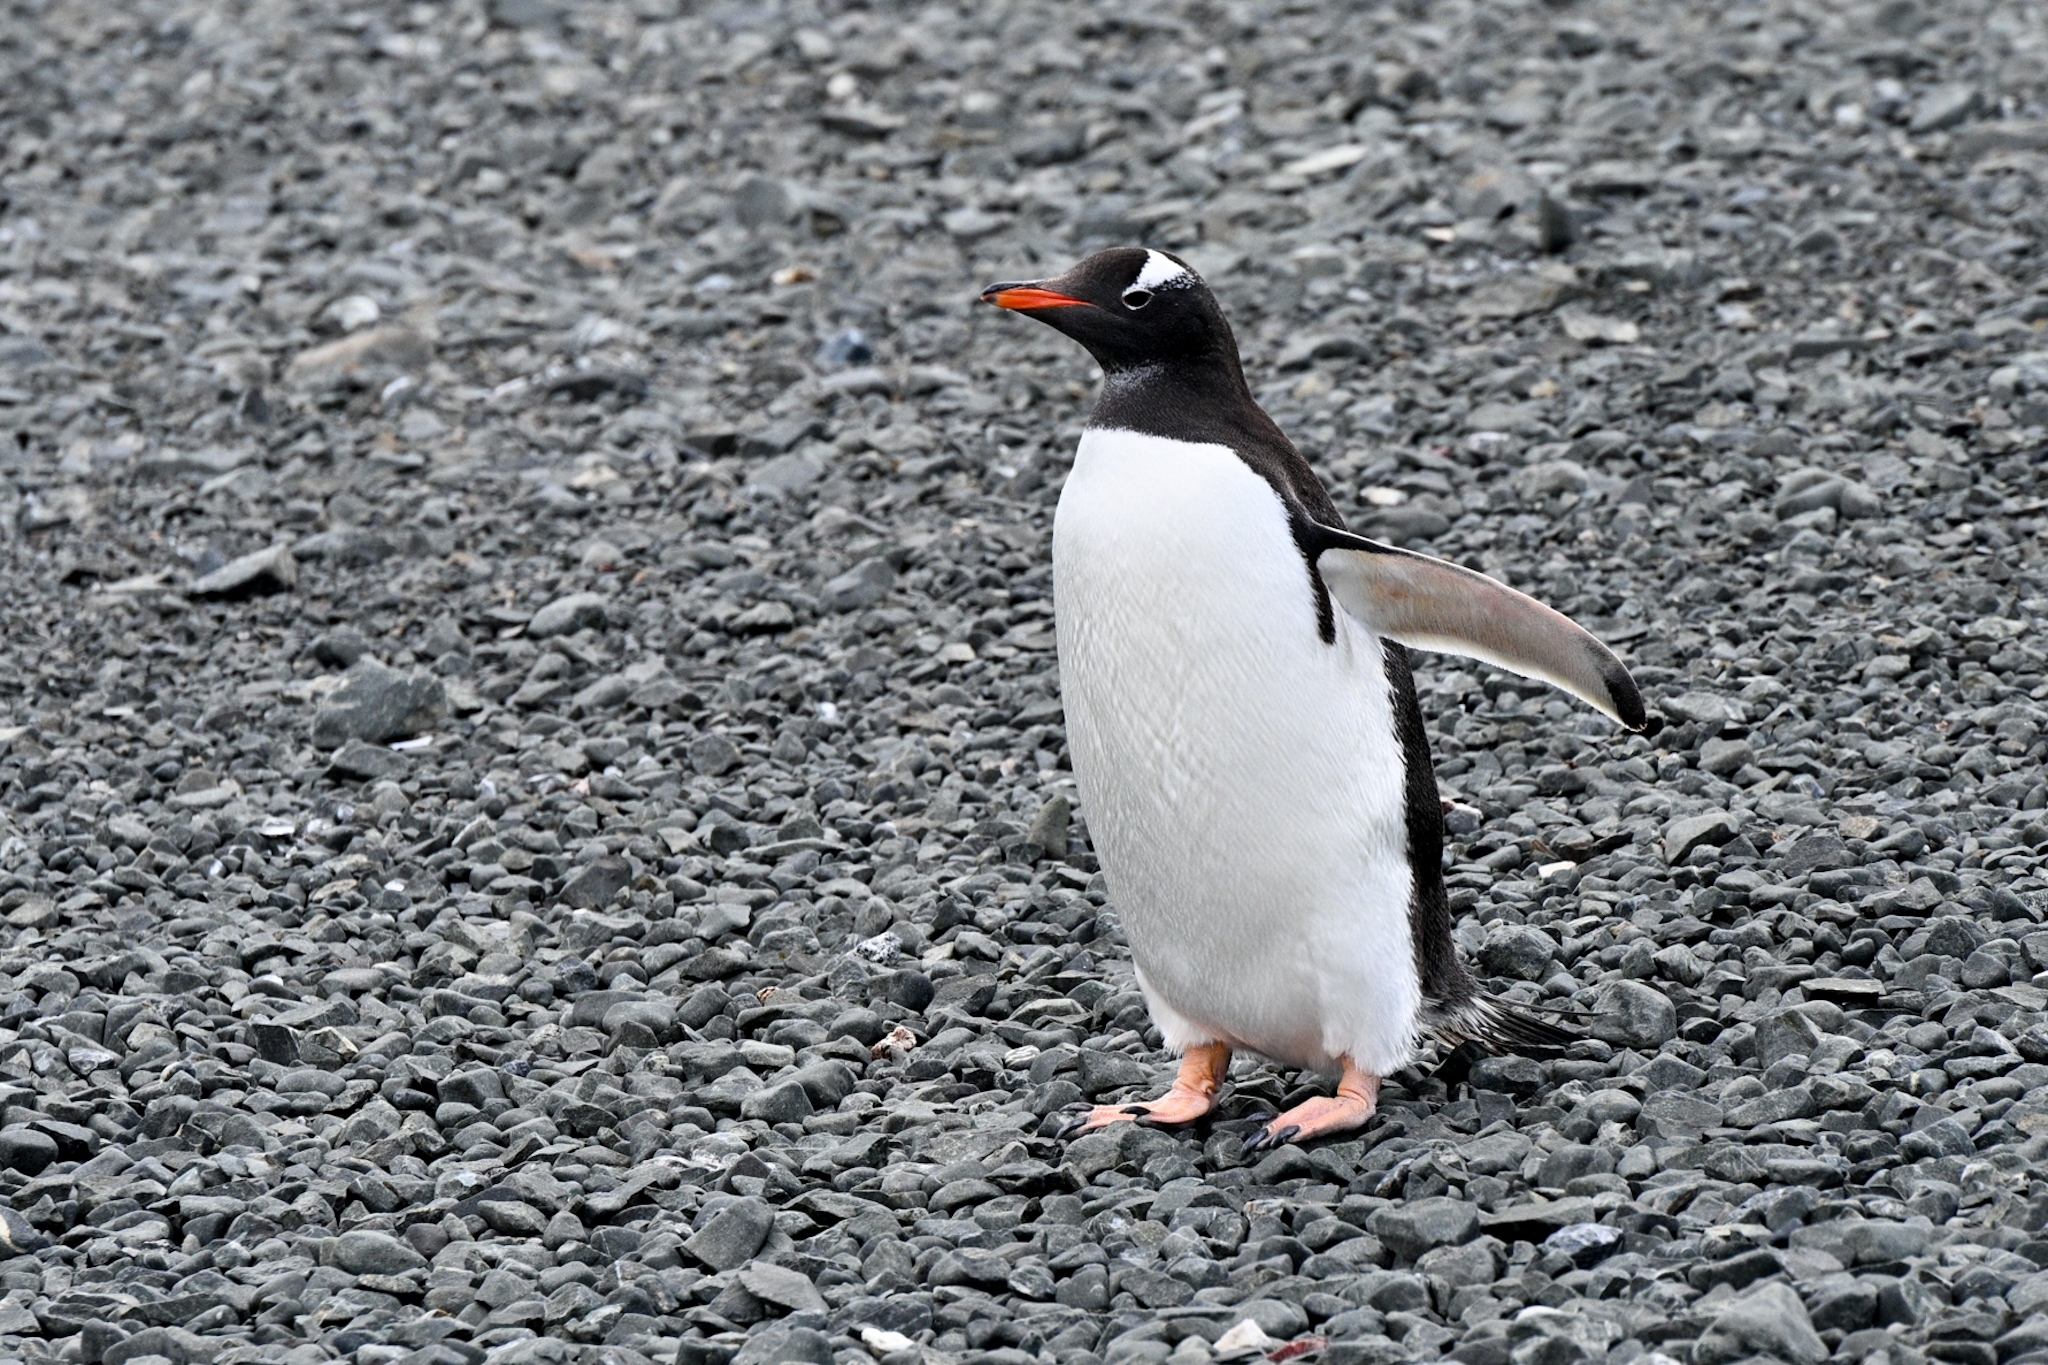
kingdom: Animalia
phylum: Chordata
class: Aves
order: Sphenisciformes
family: Spheniscidae
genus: Pygoscelis
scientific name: Pygoscelis papua
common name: Gentoo penguin
